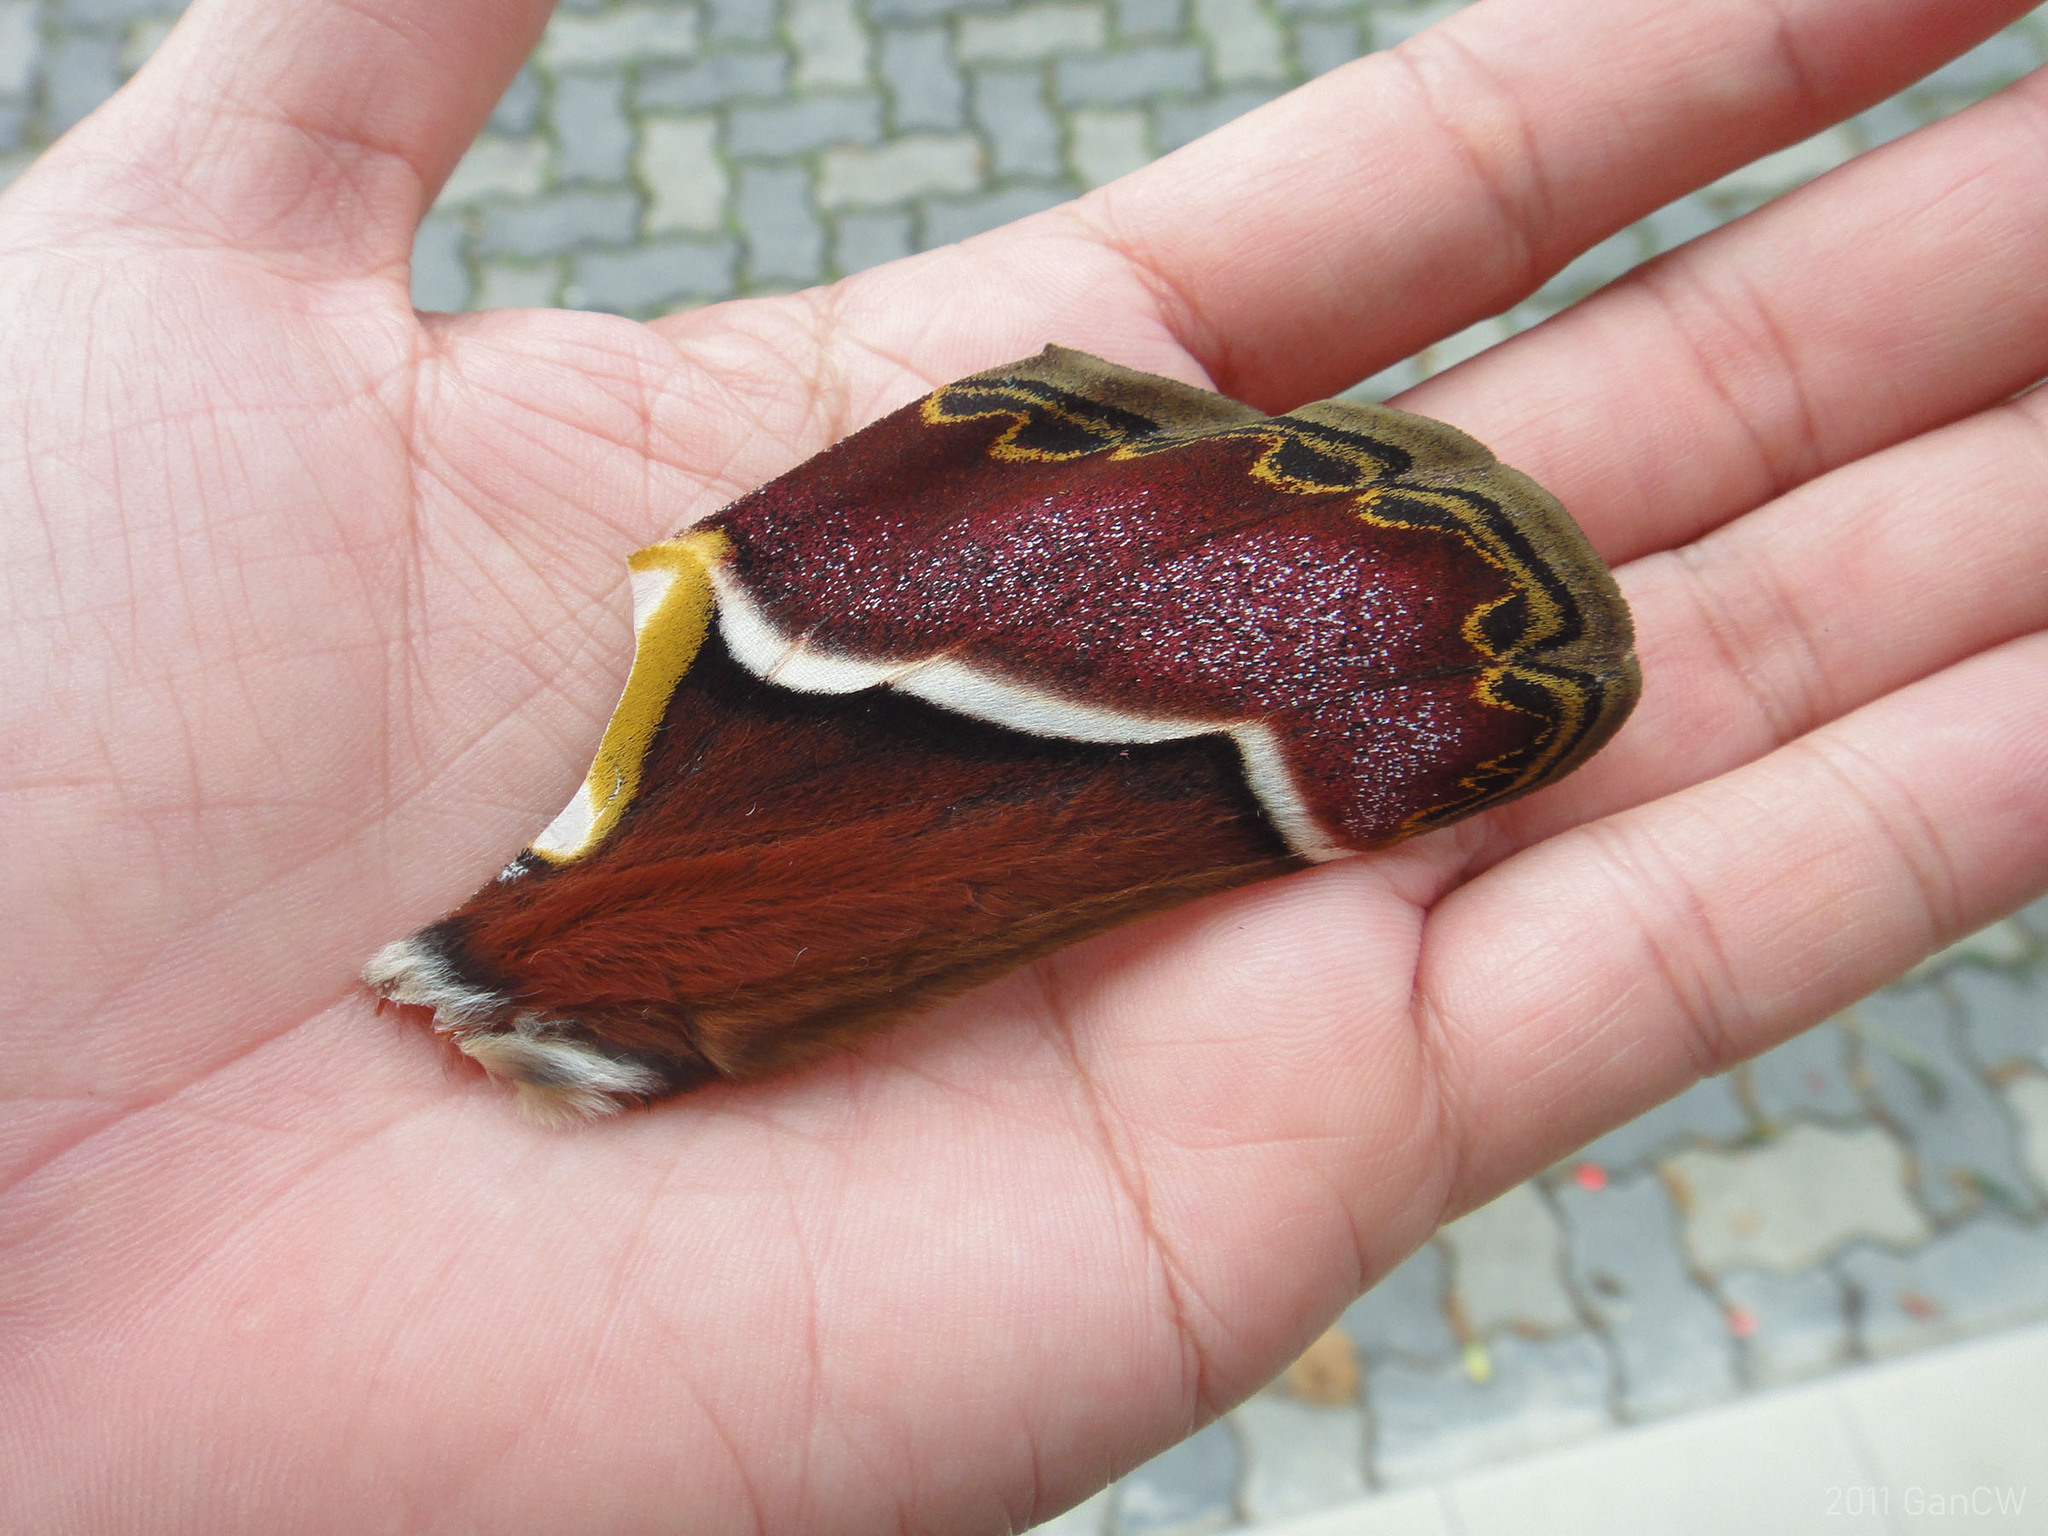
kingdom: Animalia
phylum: Arthropoda
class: Insecta
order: Lepidoptera
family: Saturniidae
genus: Archaeoattacus
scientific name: Archaeoattacus edwardsii
